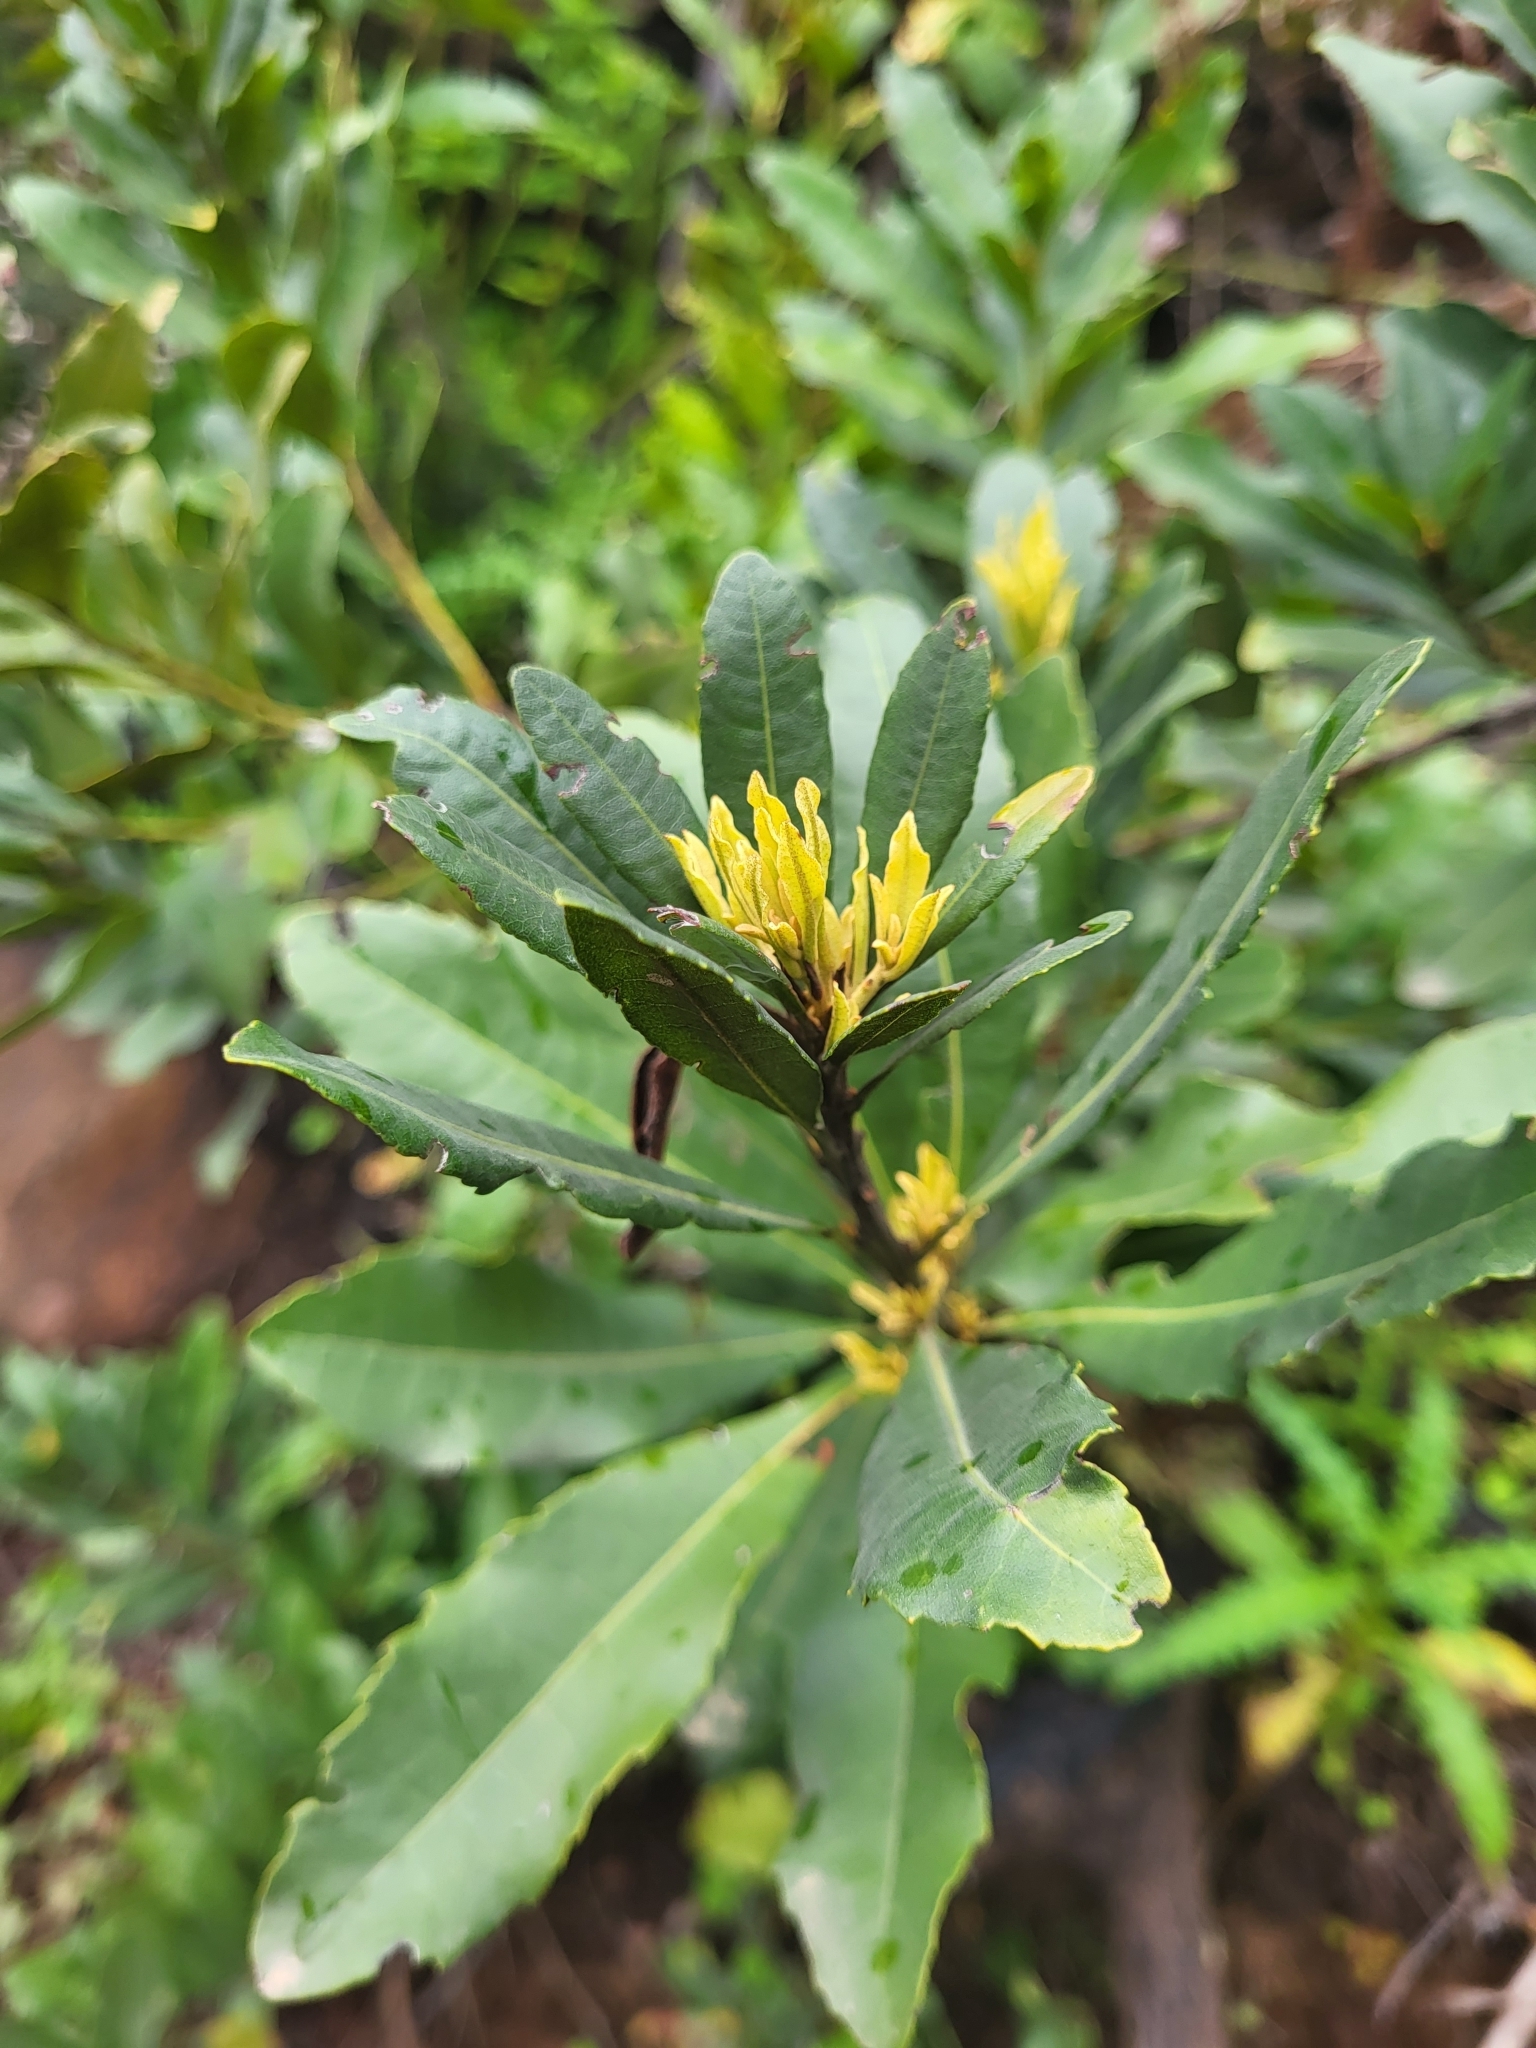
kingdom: Plantae
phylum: Tracheophyta
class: Magnoliopsida
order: Fagales
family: Myricaceae
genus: Morella
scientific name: Morella faya
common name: Firetree
